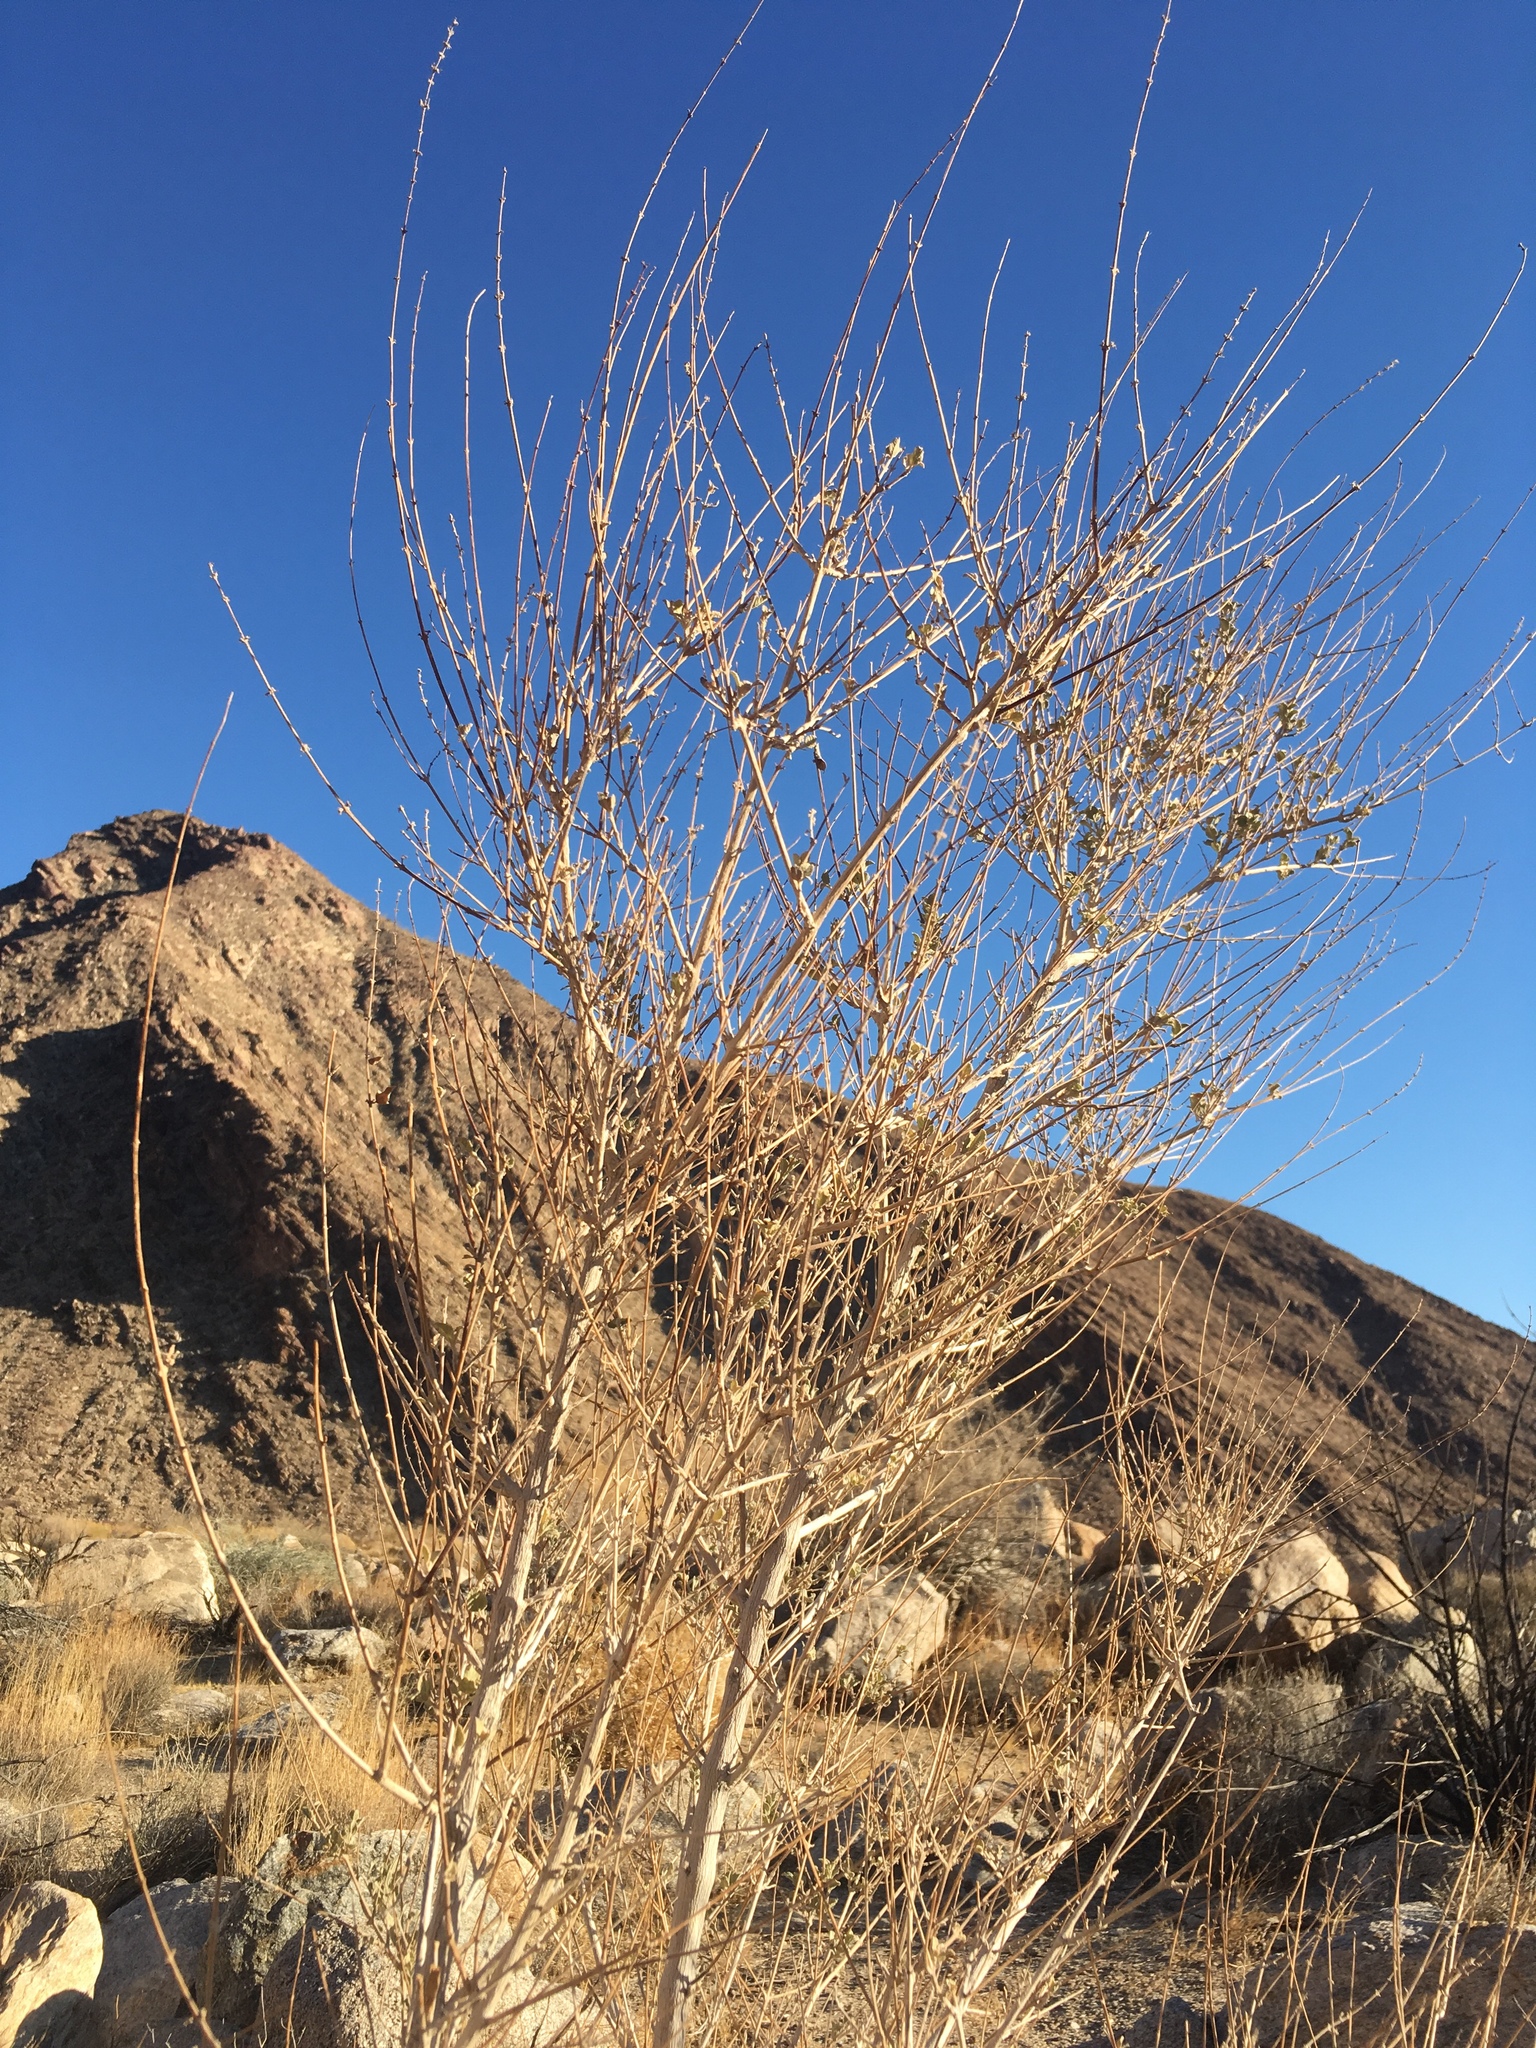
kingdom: Plantae
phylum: Tracheophyta
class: Magnoliopsida
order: Lamiales
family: Lamiaceae
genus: Condea
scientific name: Condea emoryi
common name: Chia
